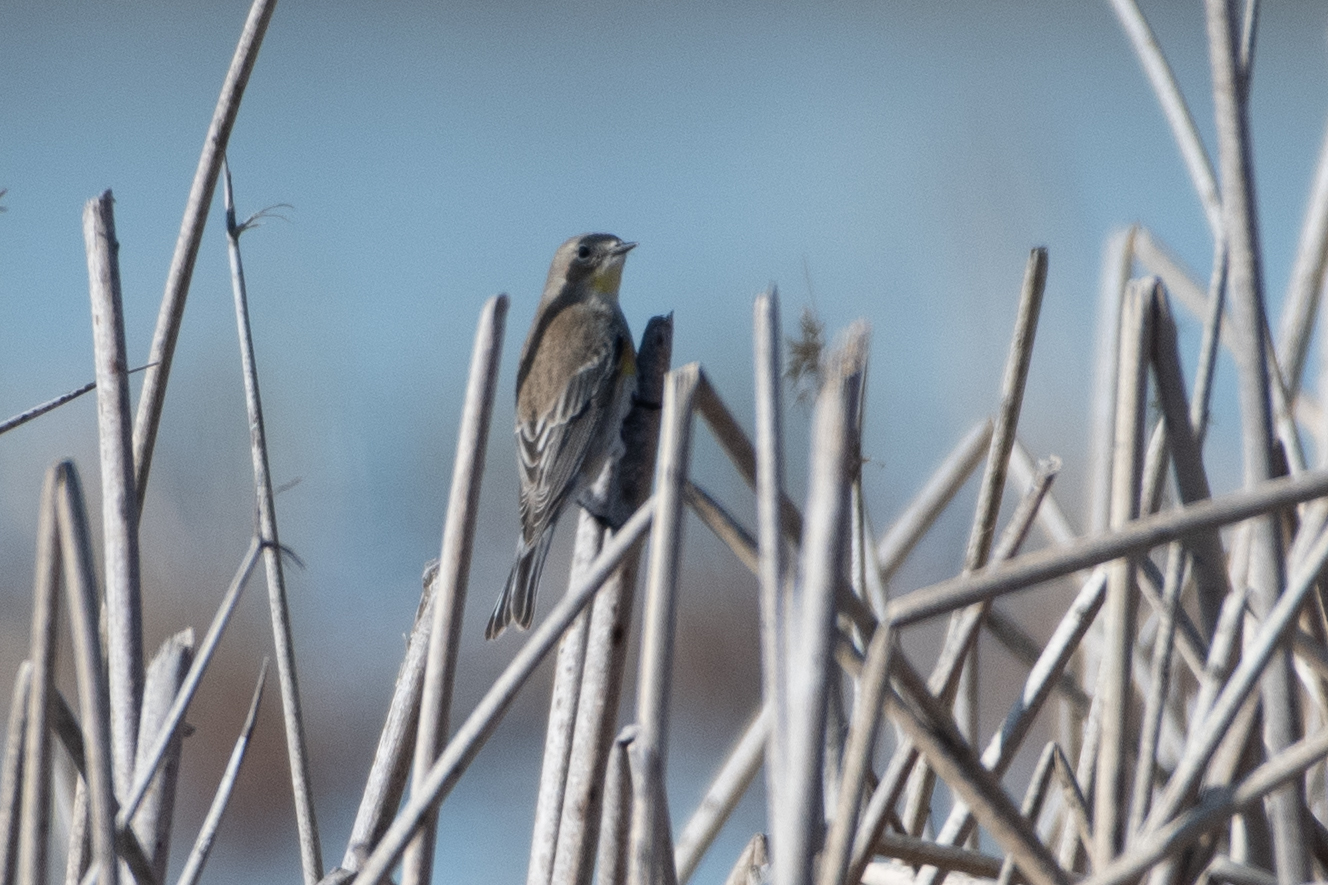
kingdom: Animalia
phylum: Chordata
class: Aves
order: Passeriformes
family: Parulidae
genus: Setophaga
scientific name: Setophaga coronata
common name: Myrtle warbler
